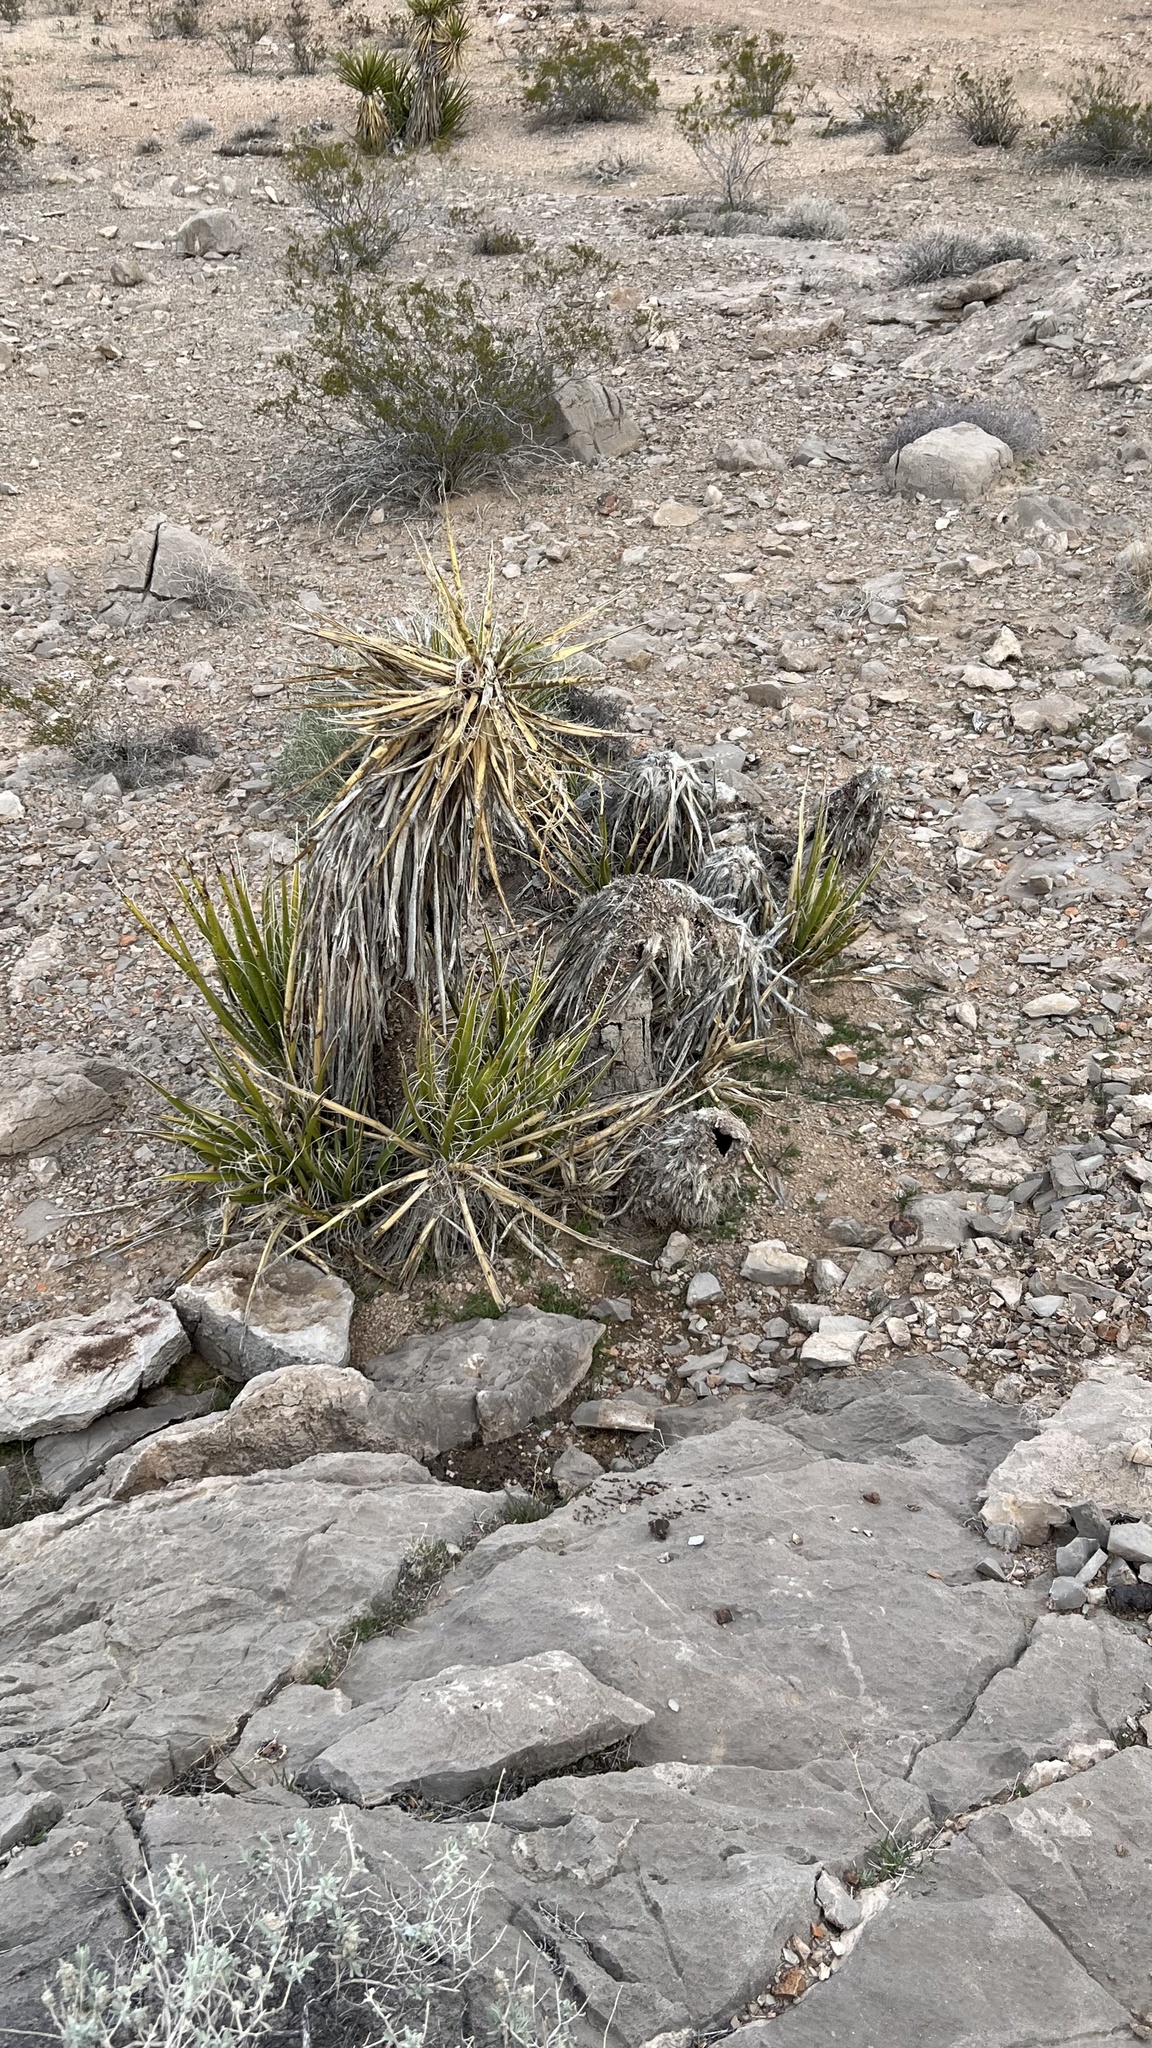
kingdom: Plantae
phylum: Tracheophyta
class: Liliopsida
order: Asparagales
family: Asparagaceae
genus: Yucca
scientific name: Yucca schidigera
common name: Mojave yucca
